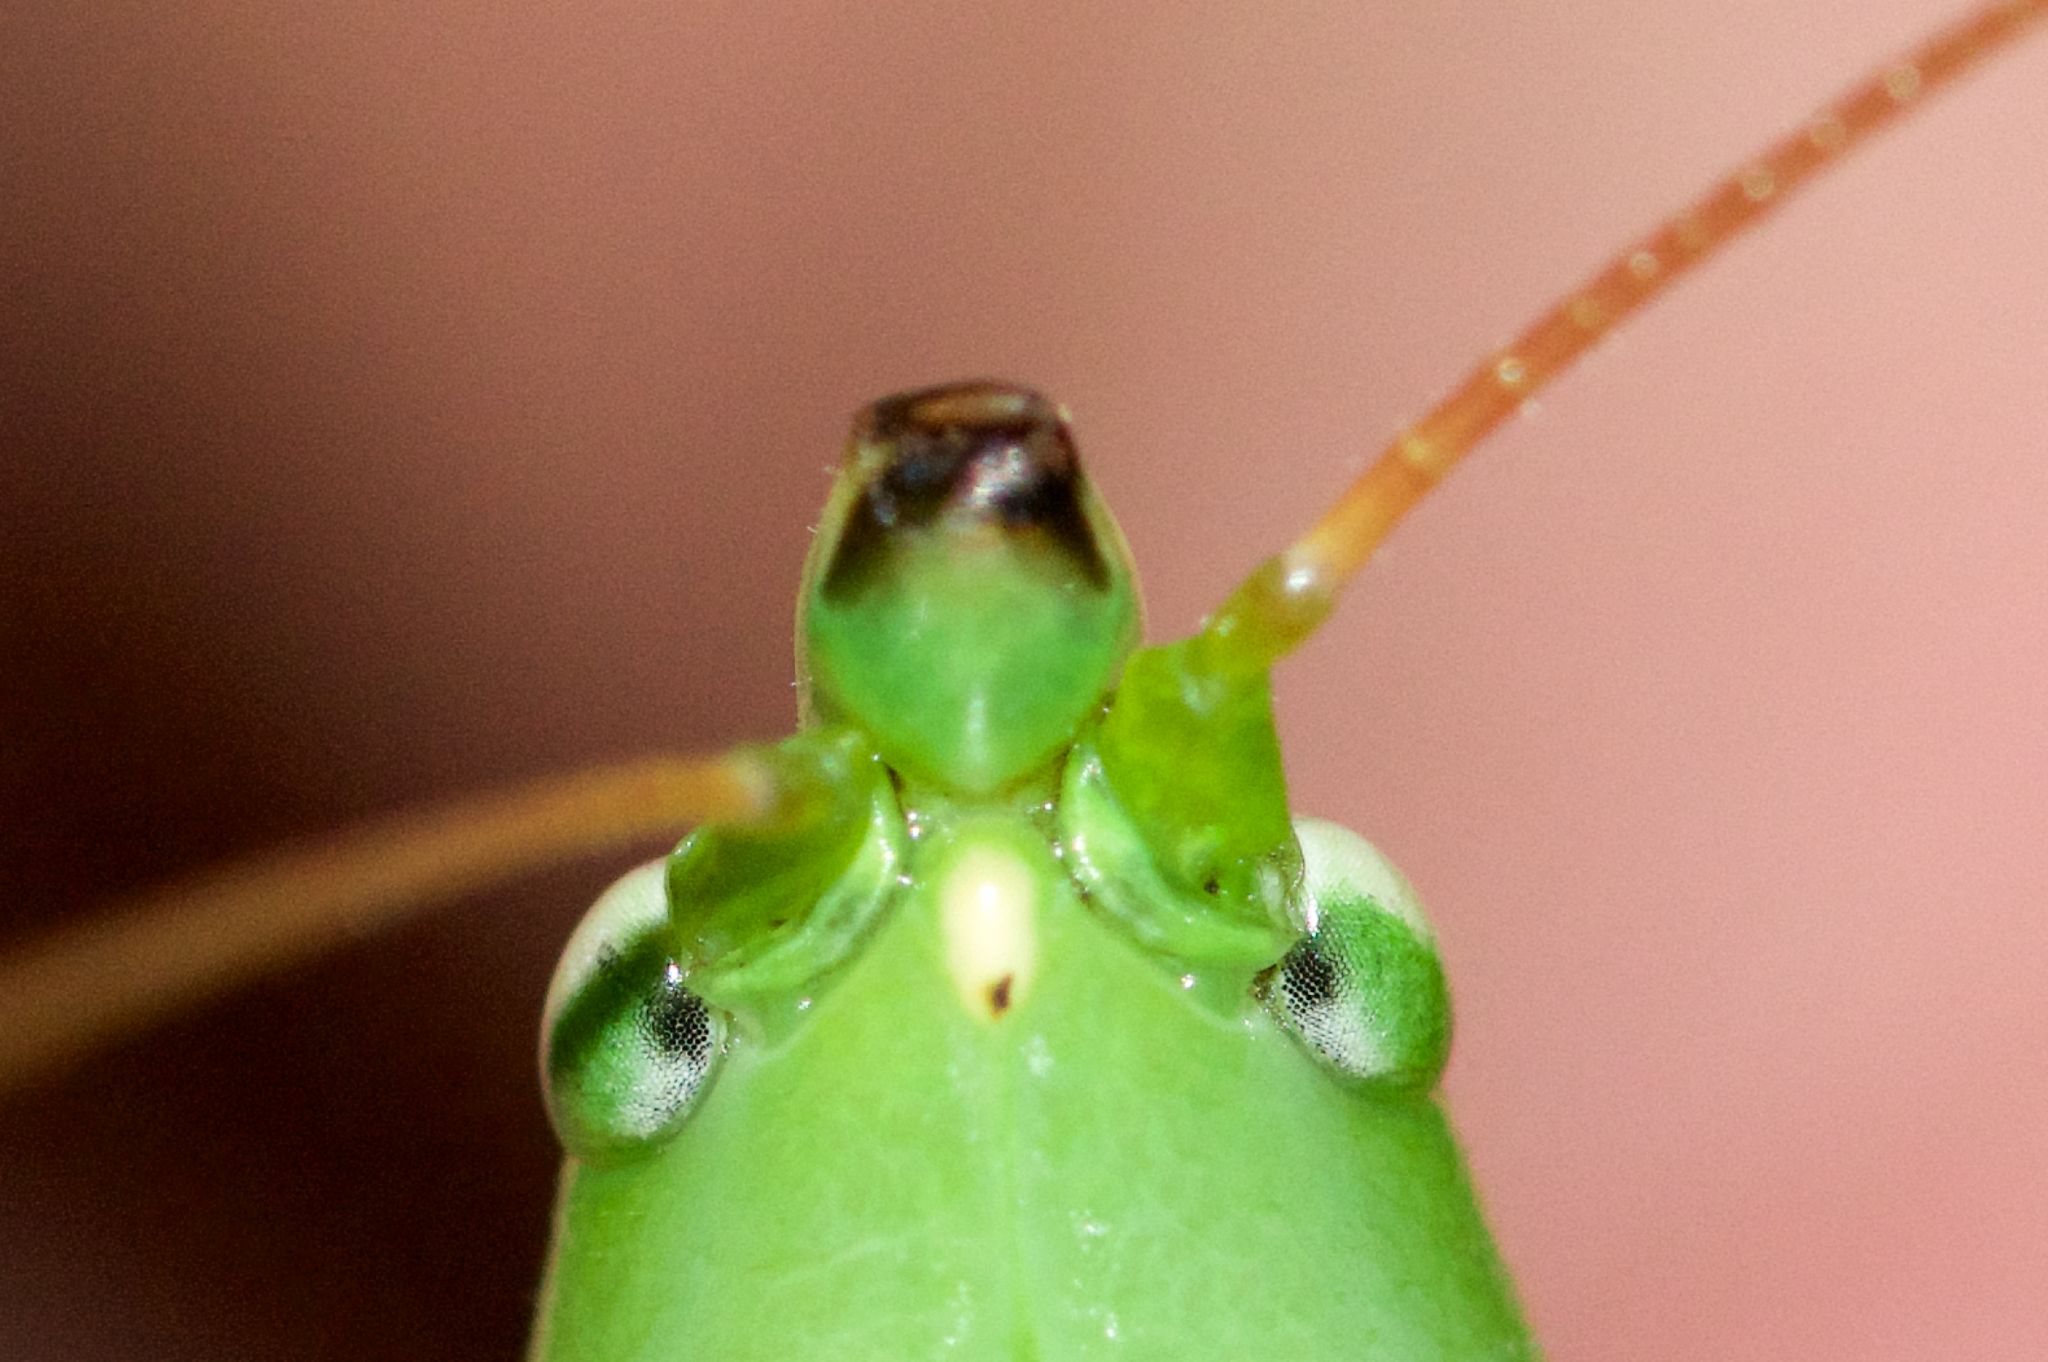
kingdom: Animalia
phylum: Arthropoda
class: Insecta
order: Orthoptera
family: Tettigoniidae
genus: Neoconocephalus
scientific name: Neoconocephalus ensiger
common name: Swordbearer
